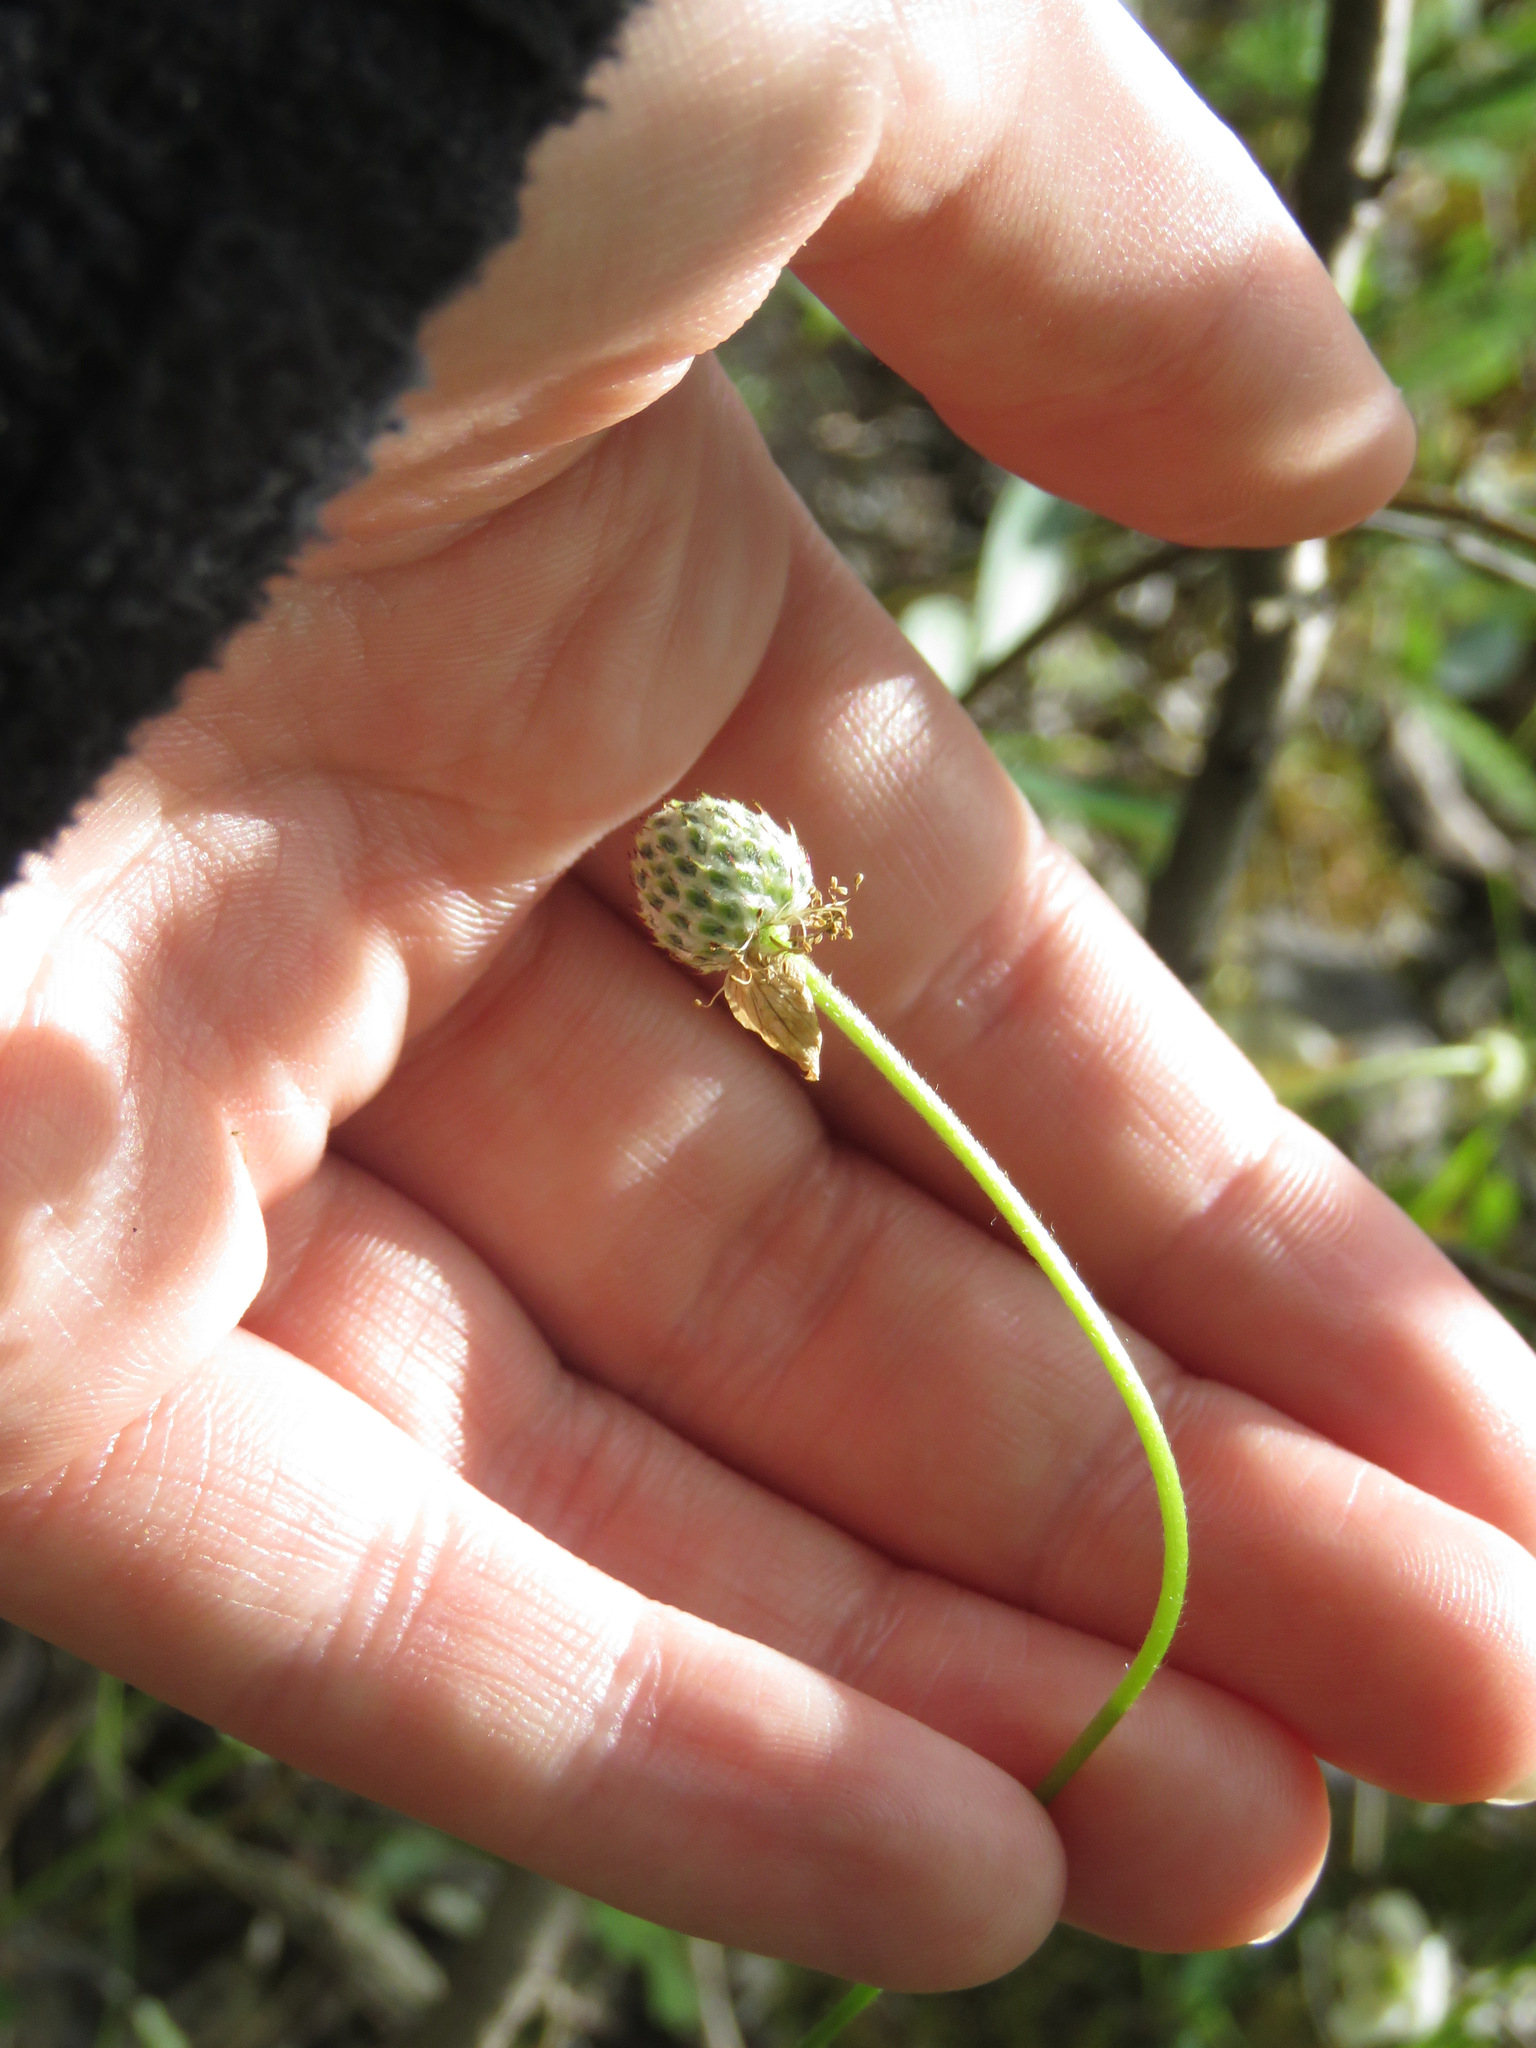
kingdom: Plantae
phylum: Tracheophyta
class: Magnoliopsida
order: Ranunculales
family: Ranunculaceae
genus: Anemone
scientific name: Anemone parviflora
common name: Northern anemone
